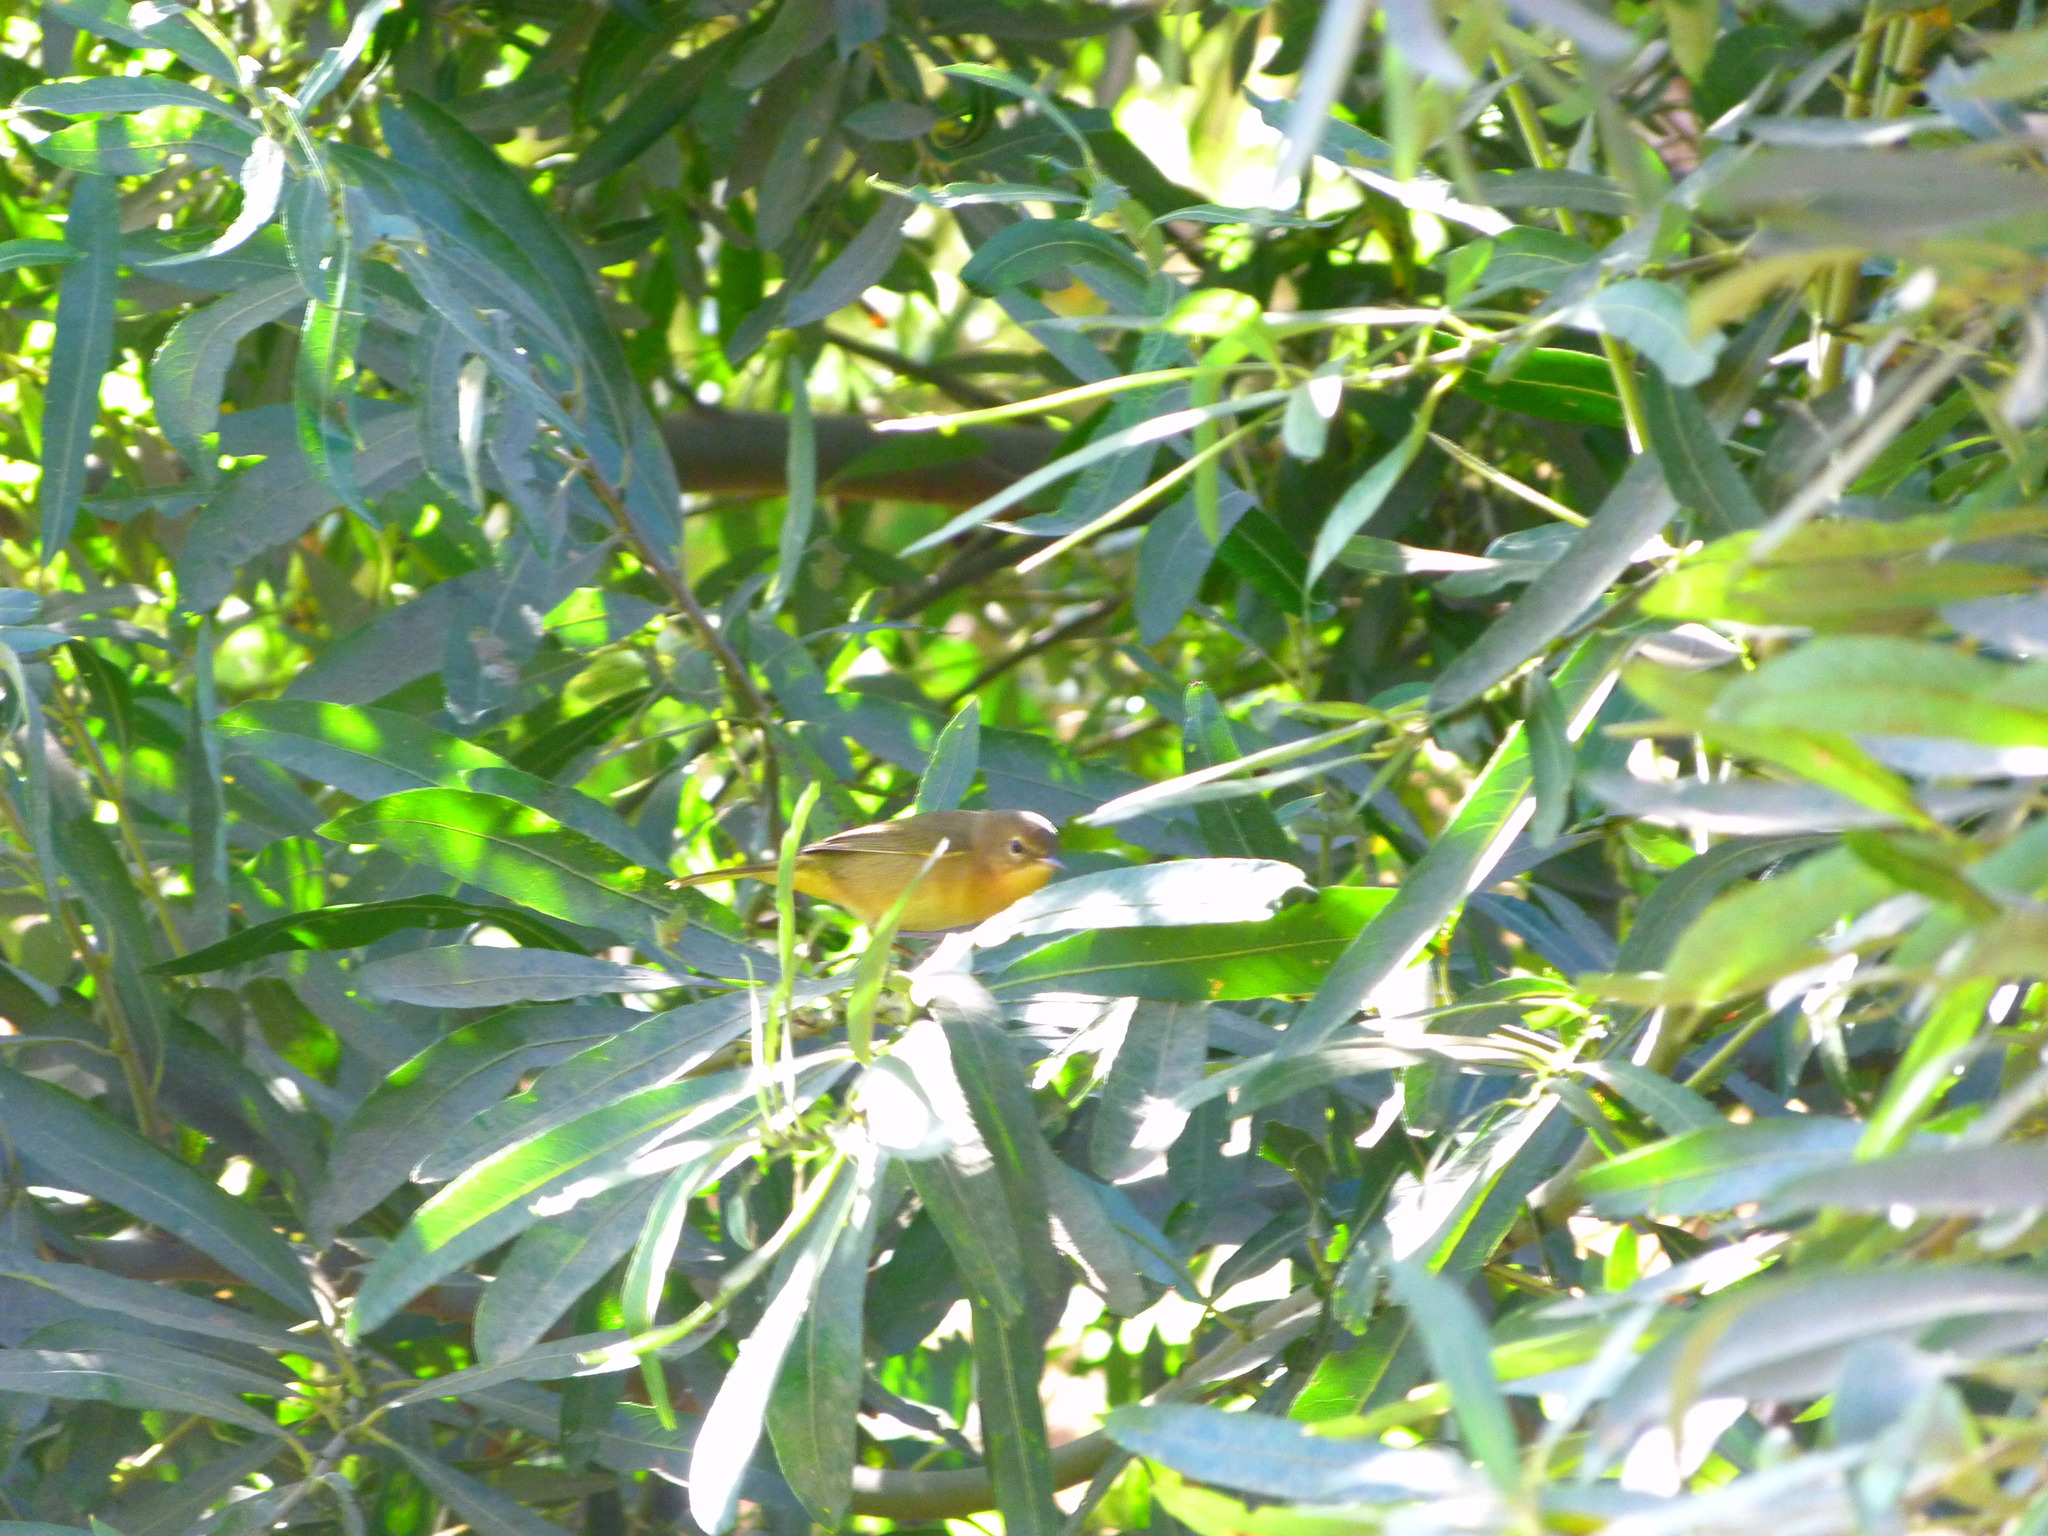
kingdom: Animalia
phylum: Chordata
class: Aves
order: Passeriformes
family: Parulidae
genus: Geothlypis
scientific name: Geothlypis trichas
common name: Common yellowthroat
